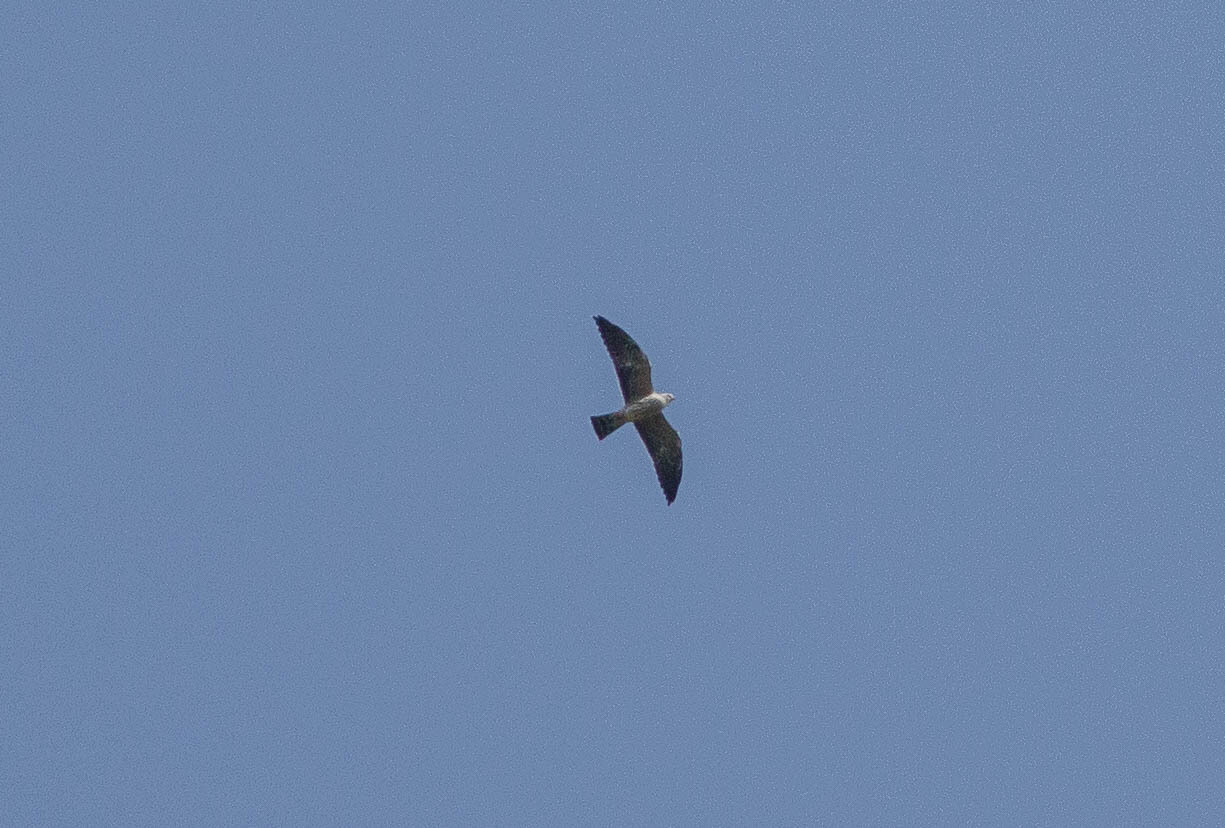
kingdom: Animalia
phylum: Chordata
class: Aves
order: Accipitriformes
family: Accipitridae
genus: Ictinia
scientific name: Ictinia mississippiensis
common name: Mississippi kite
